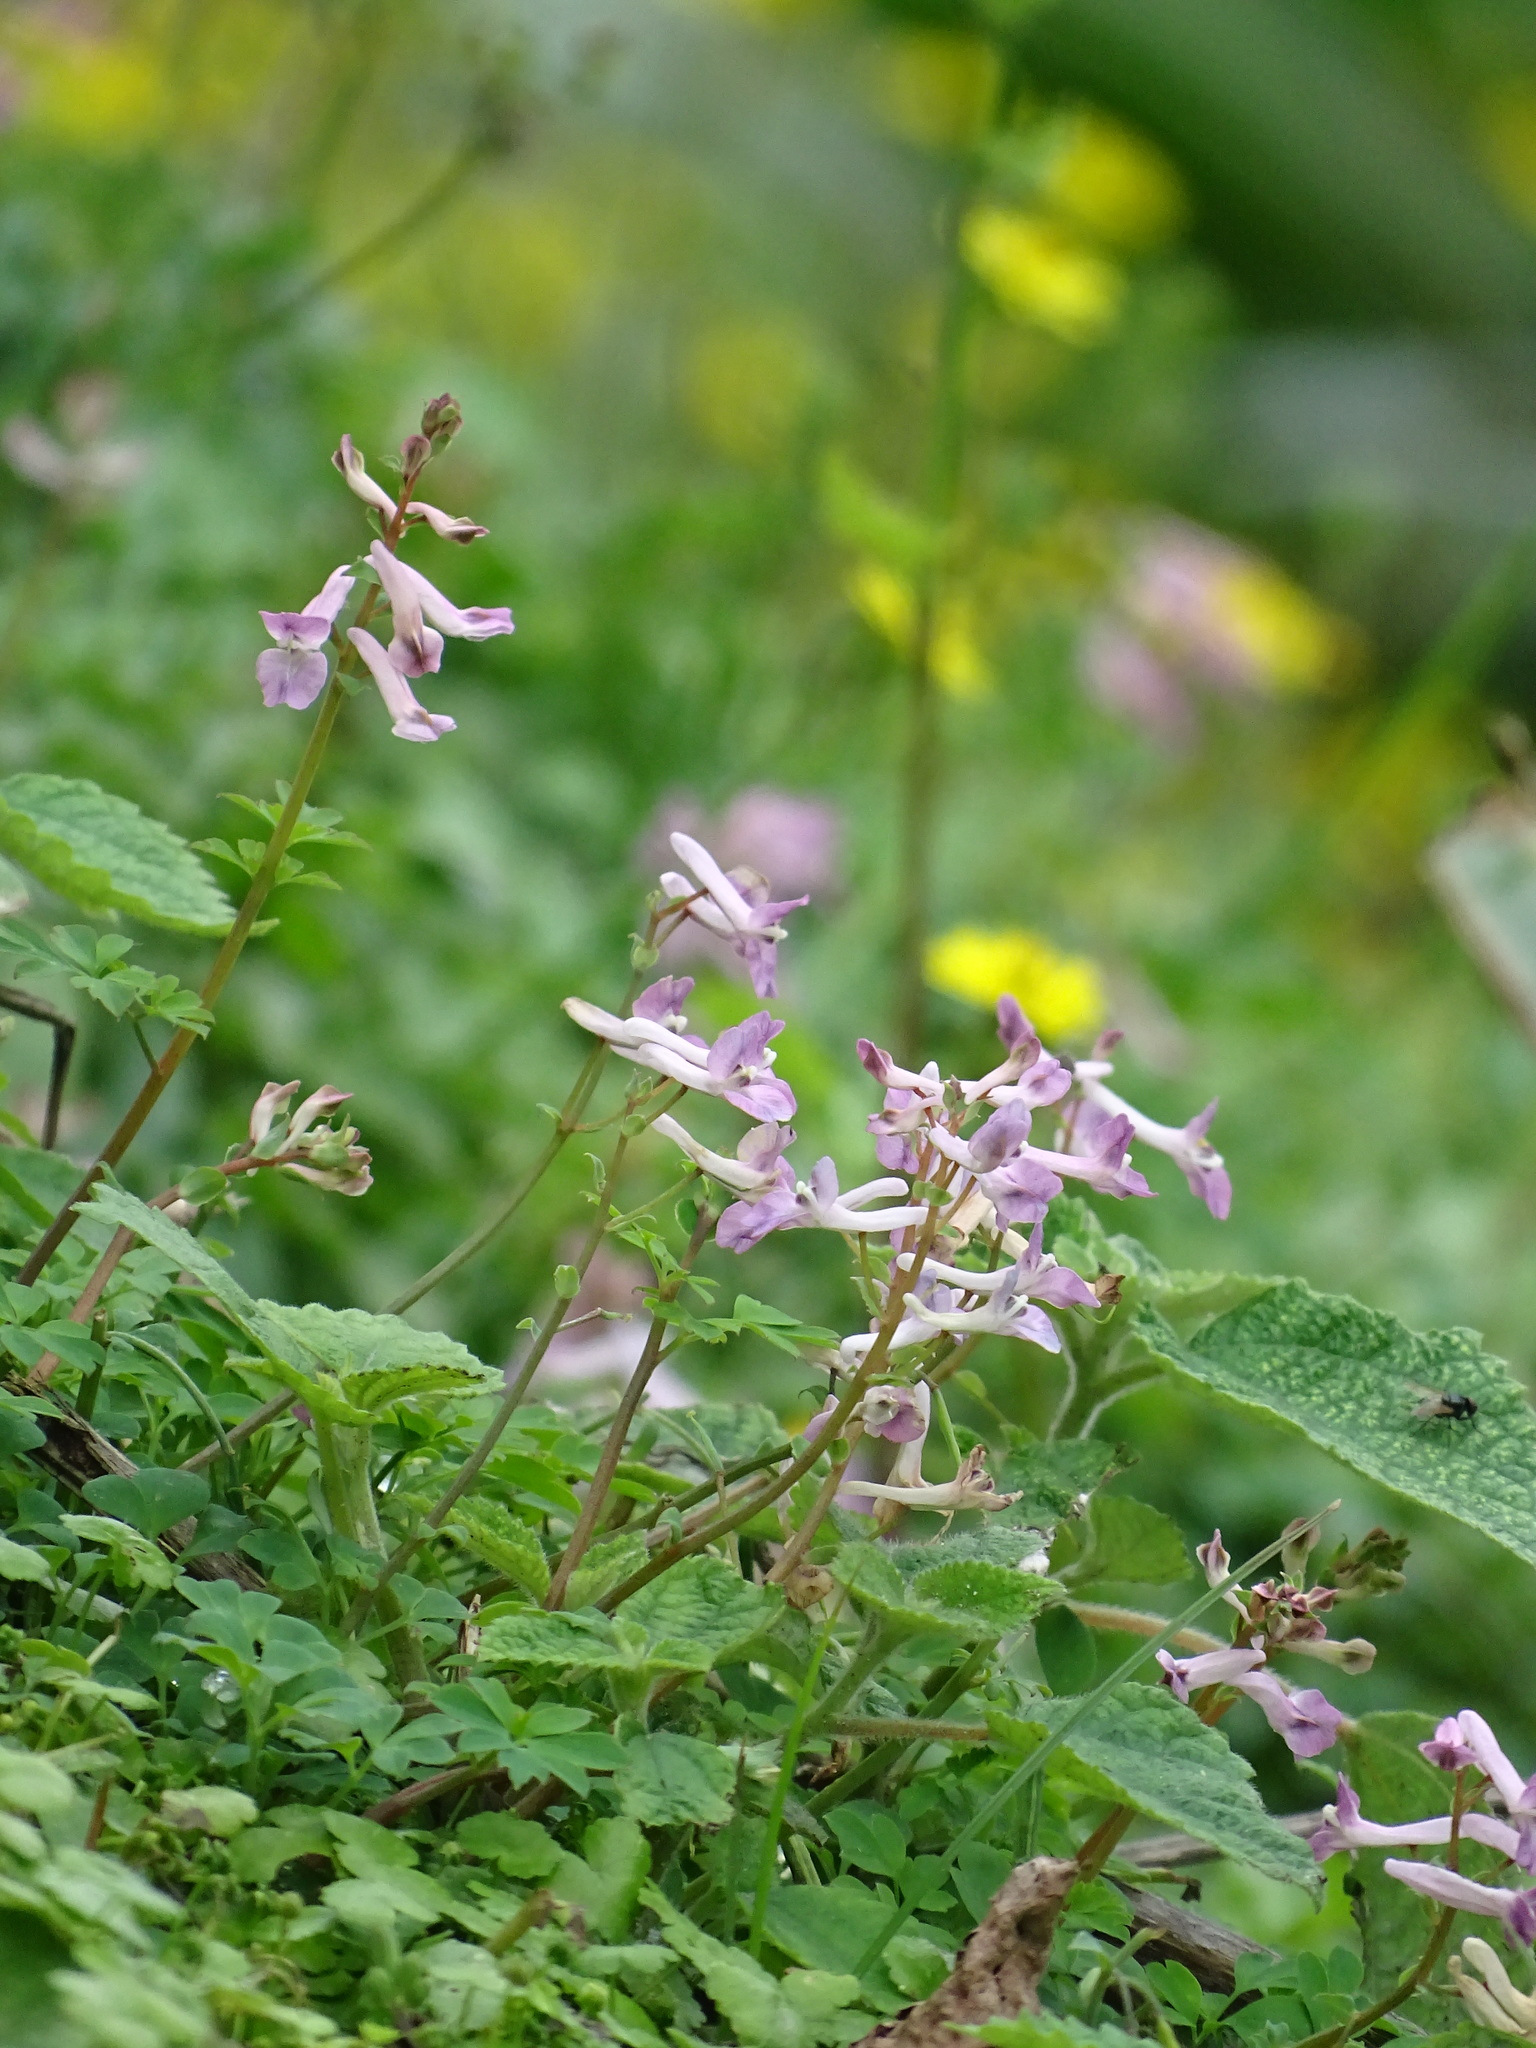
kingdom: Plantae
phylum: Tracheophyta
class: Magnoliopsida
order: Ranunculales
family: Papaveraceae
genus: Corydalis
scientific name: Corydalis decumbens
